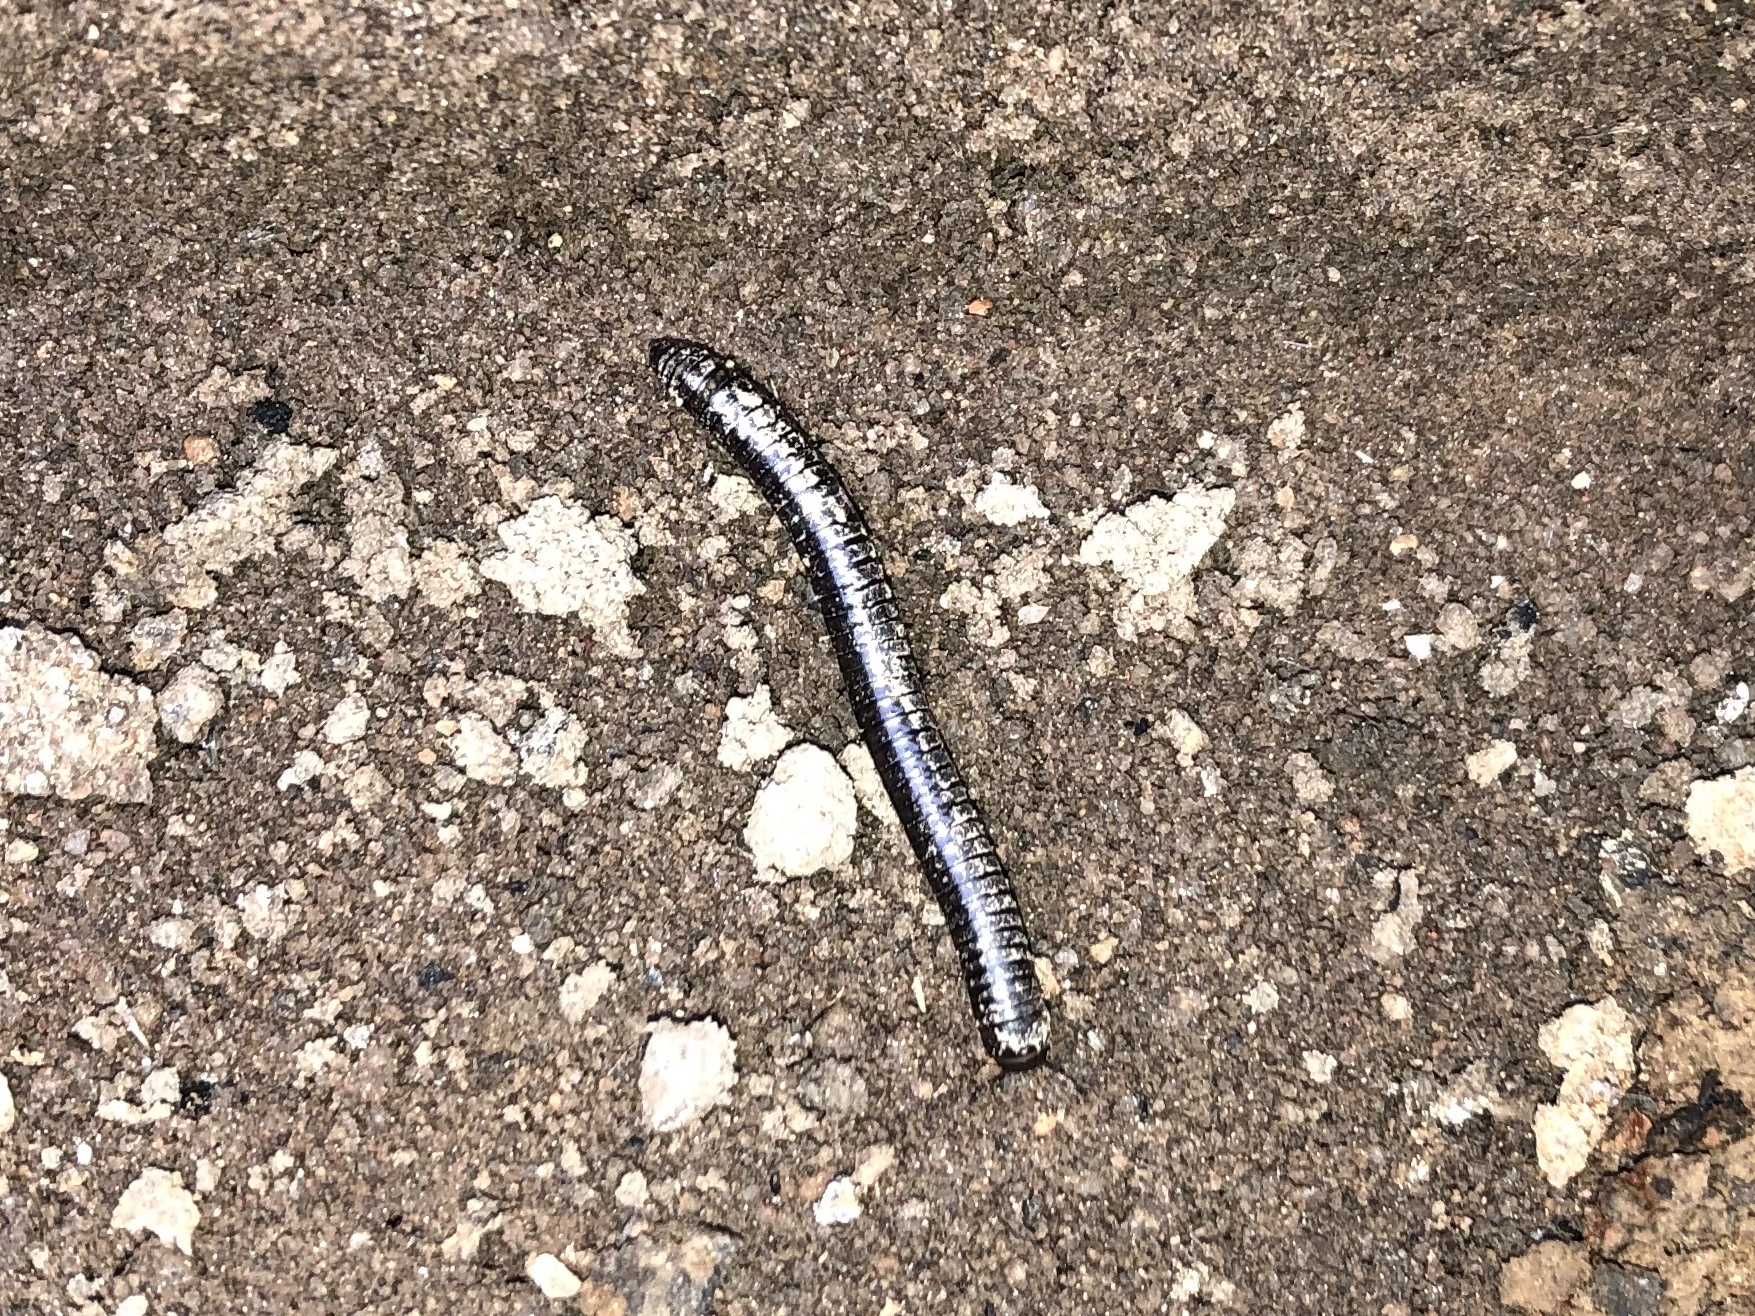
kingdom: Animalia
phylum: Arthropoda
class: Diplopoda
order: Julida
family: Julidae
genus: Cylindroiulus
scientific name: Cylindroiulus caeruleocinctus
